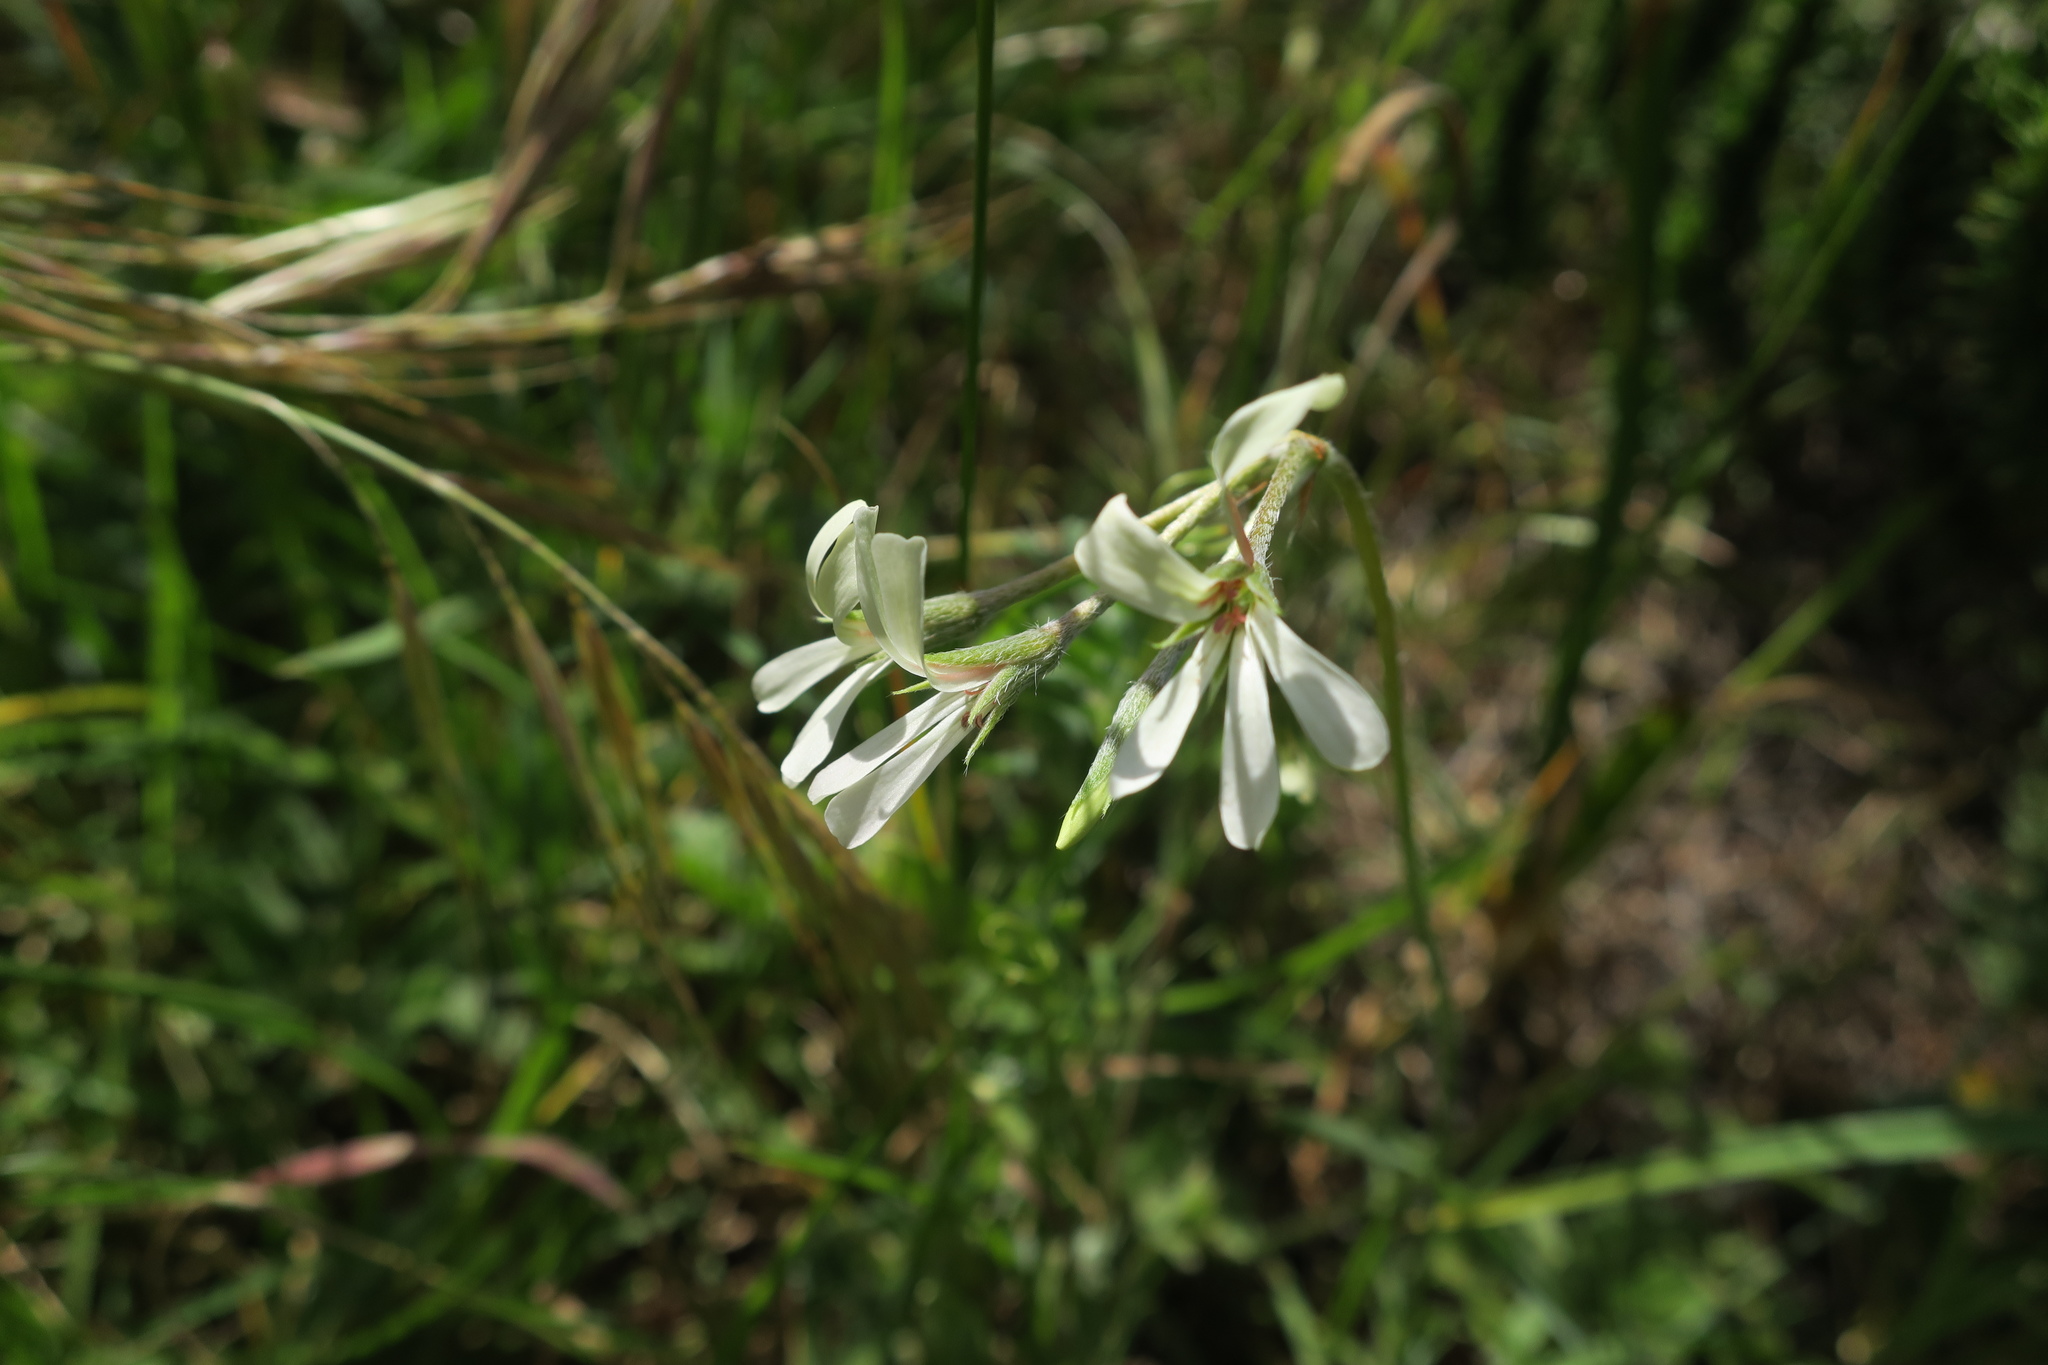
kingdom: Plantae
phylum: Tracheophyta
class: Magnoliopsida
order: Geraniales
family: Geraniaceae
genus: Pelargonium
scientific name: Pelargonium alchemilloides
